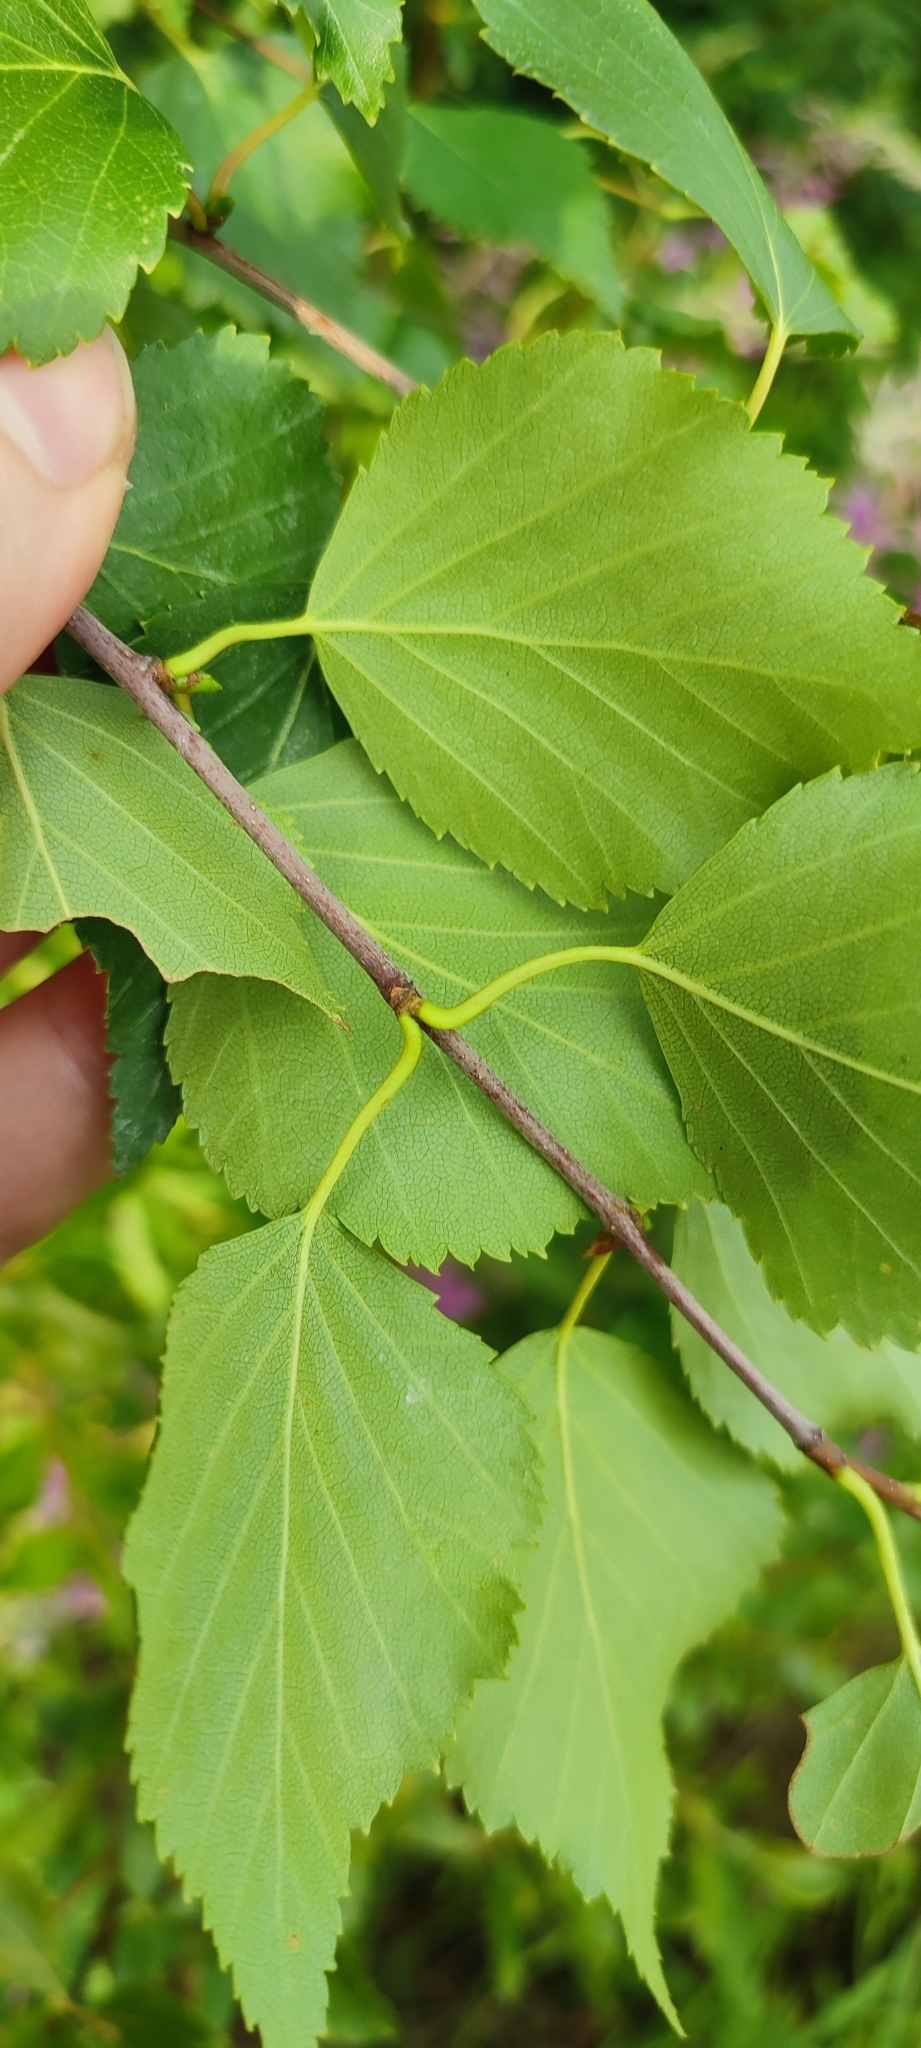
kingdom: Plantae
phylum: Tracheophyta
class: Magnoliopsida
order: Fagales
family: Betulaceae
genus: Betula
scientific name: Betula pendula
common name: Silver birch
